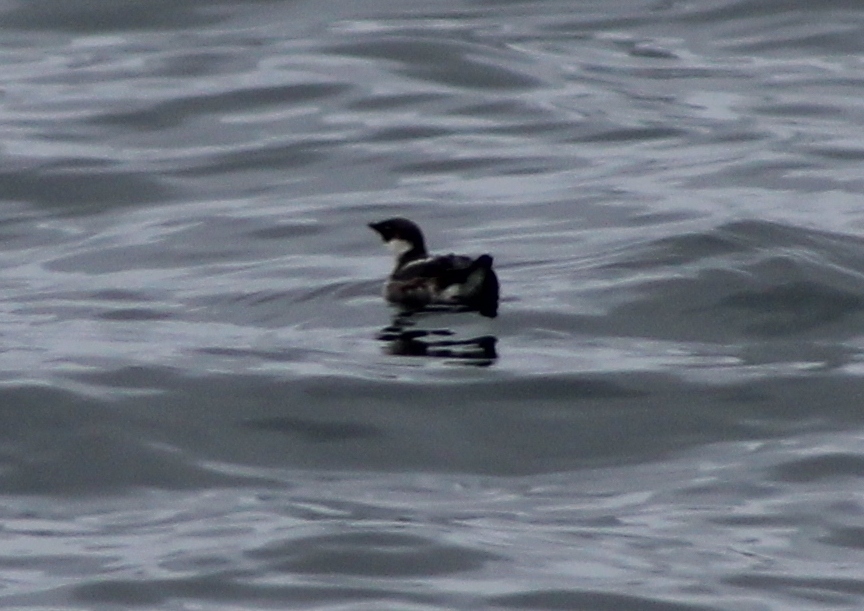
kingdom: Animalia
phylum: Chordata
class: Aves
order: Charadriiformes
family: Alcidae
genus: Brachyramphus
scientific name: Brachyramphus marmoratus
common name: Marbled murrelet
